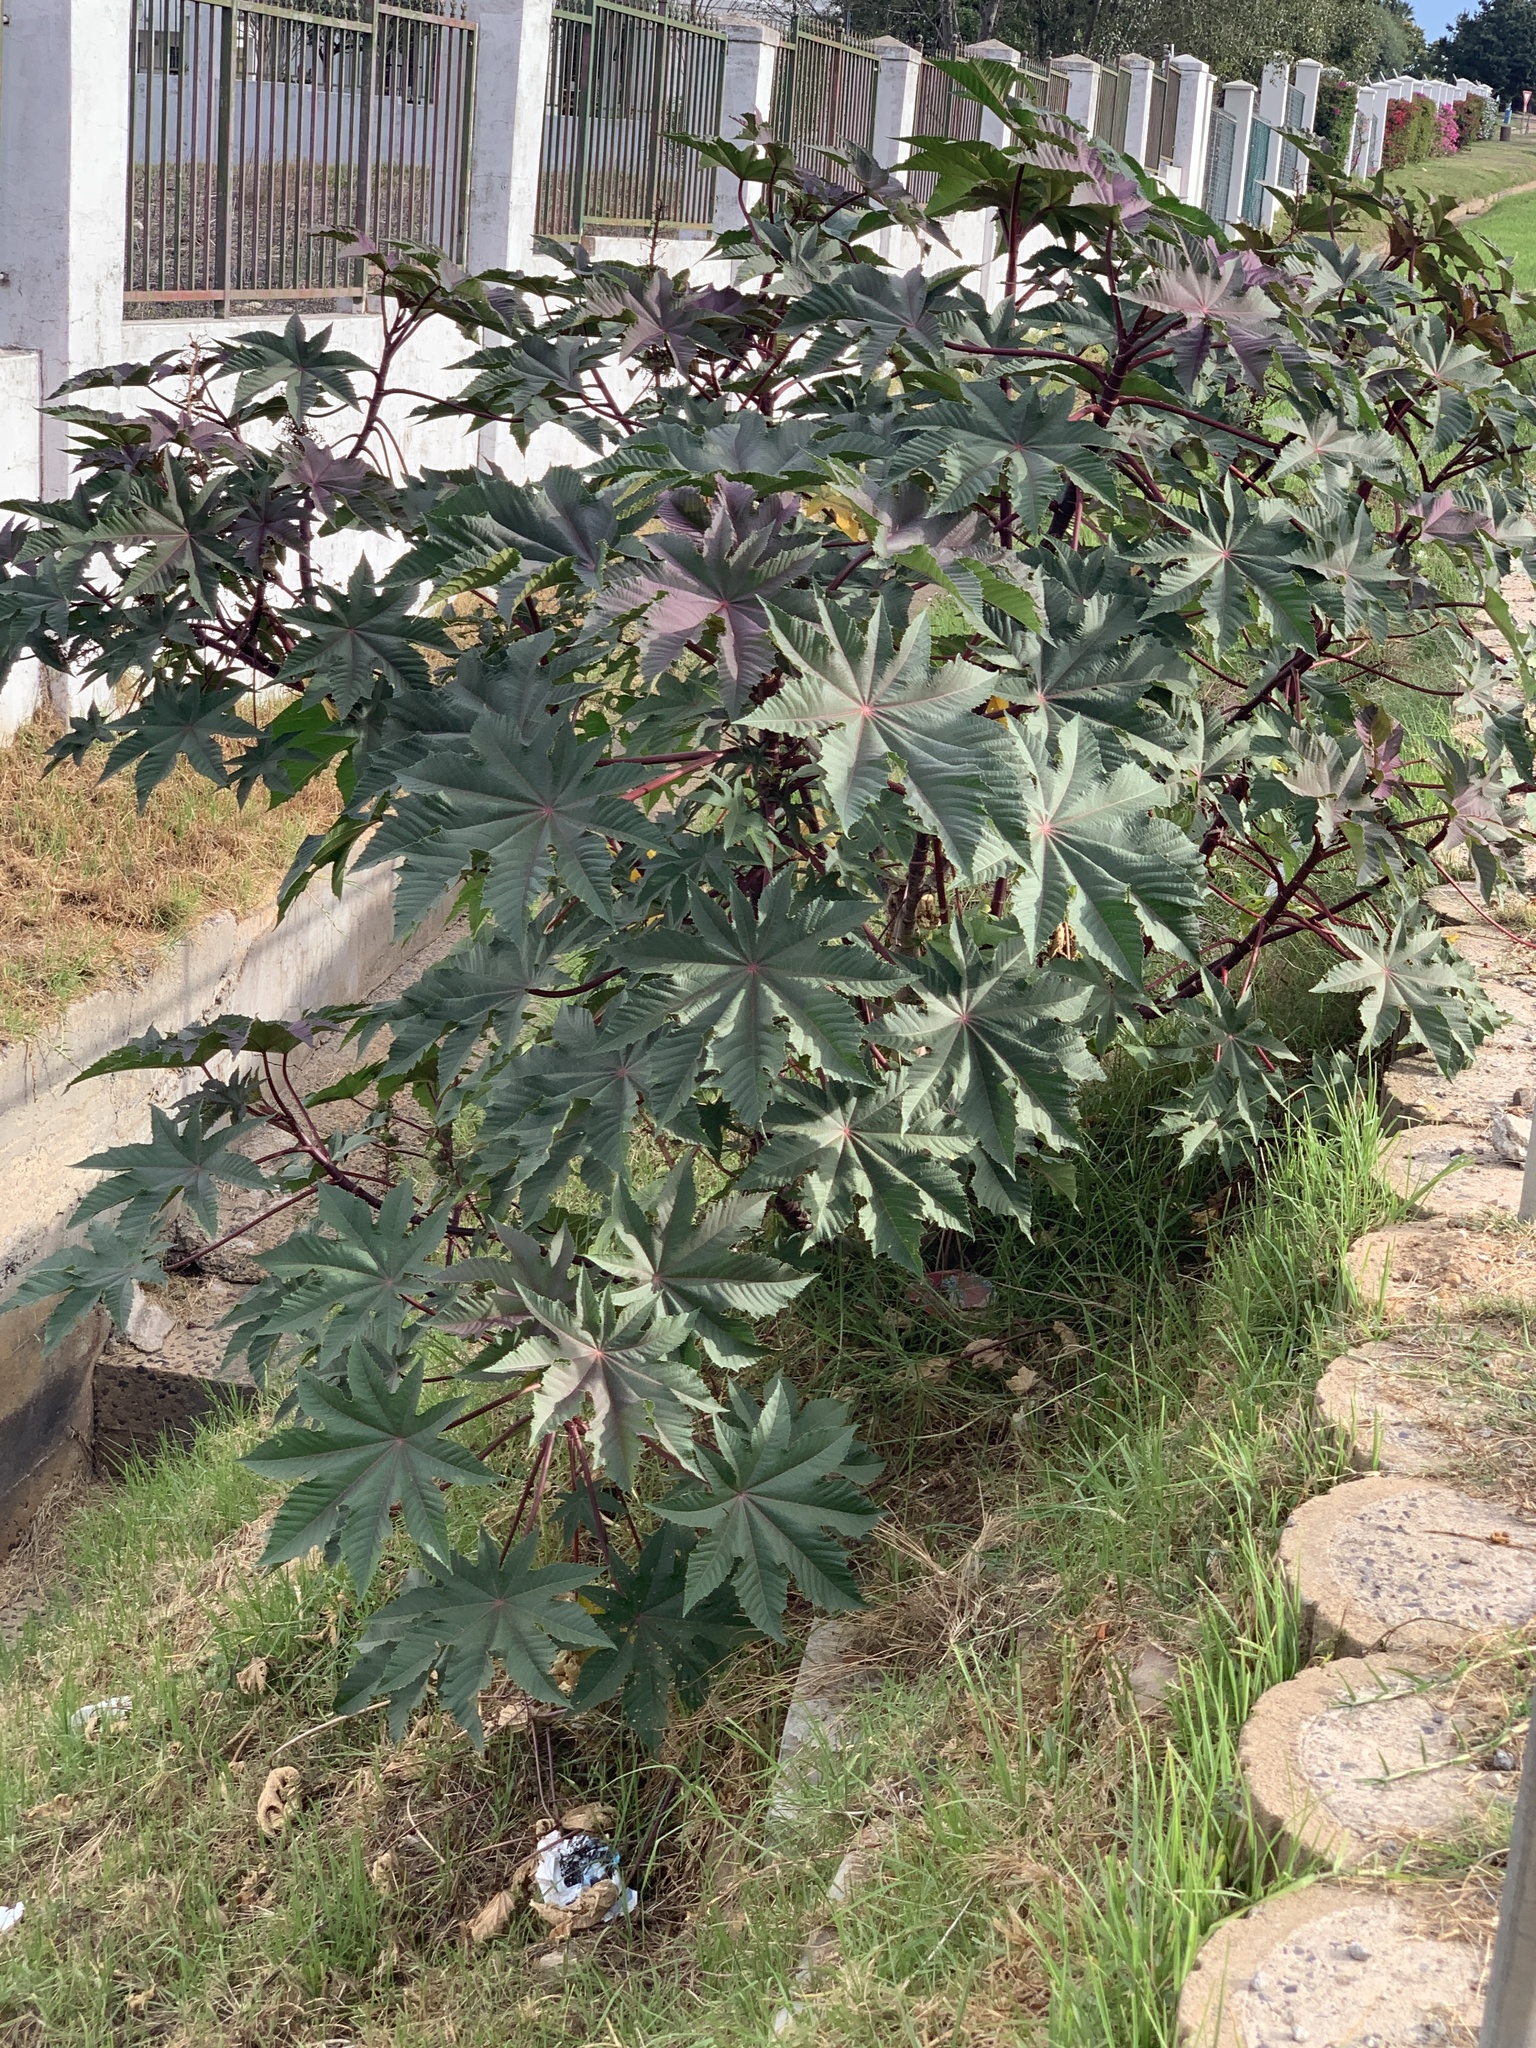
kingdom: Plantae
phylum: Tracheophyta
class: Magnoliopsida
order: Malpighiales
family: Euphorbiaceae
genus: Ricinus
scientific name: Ricinus communis
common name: Castor-oil-plant
